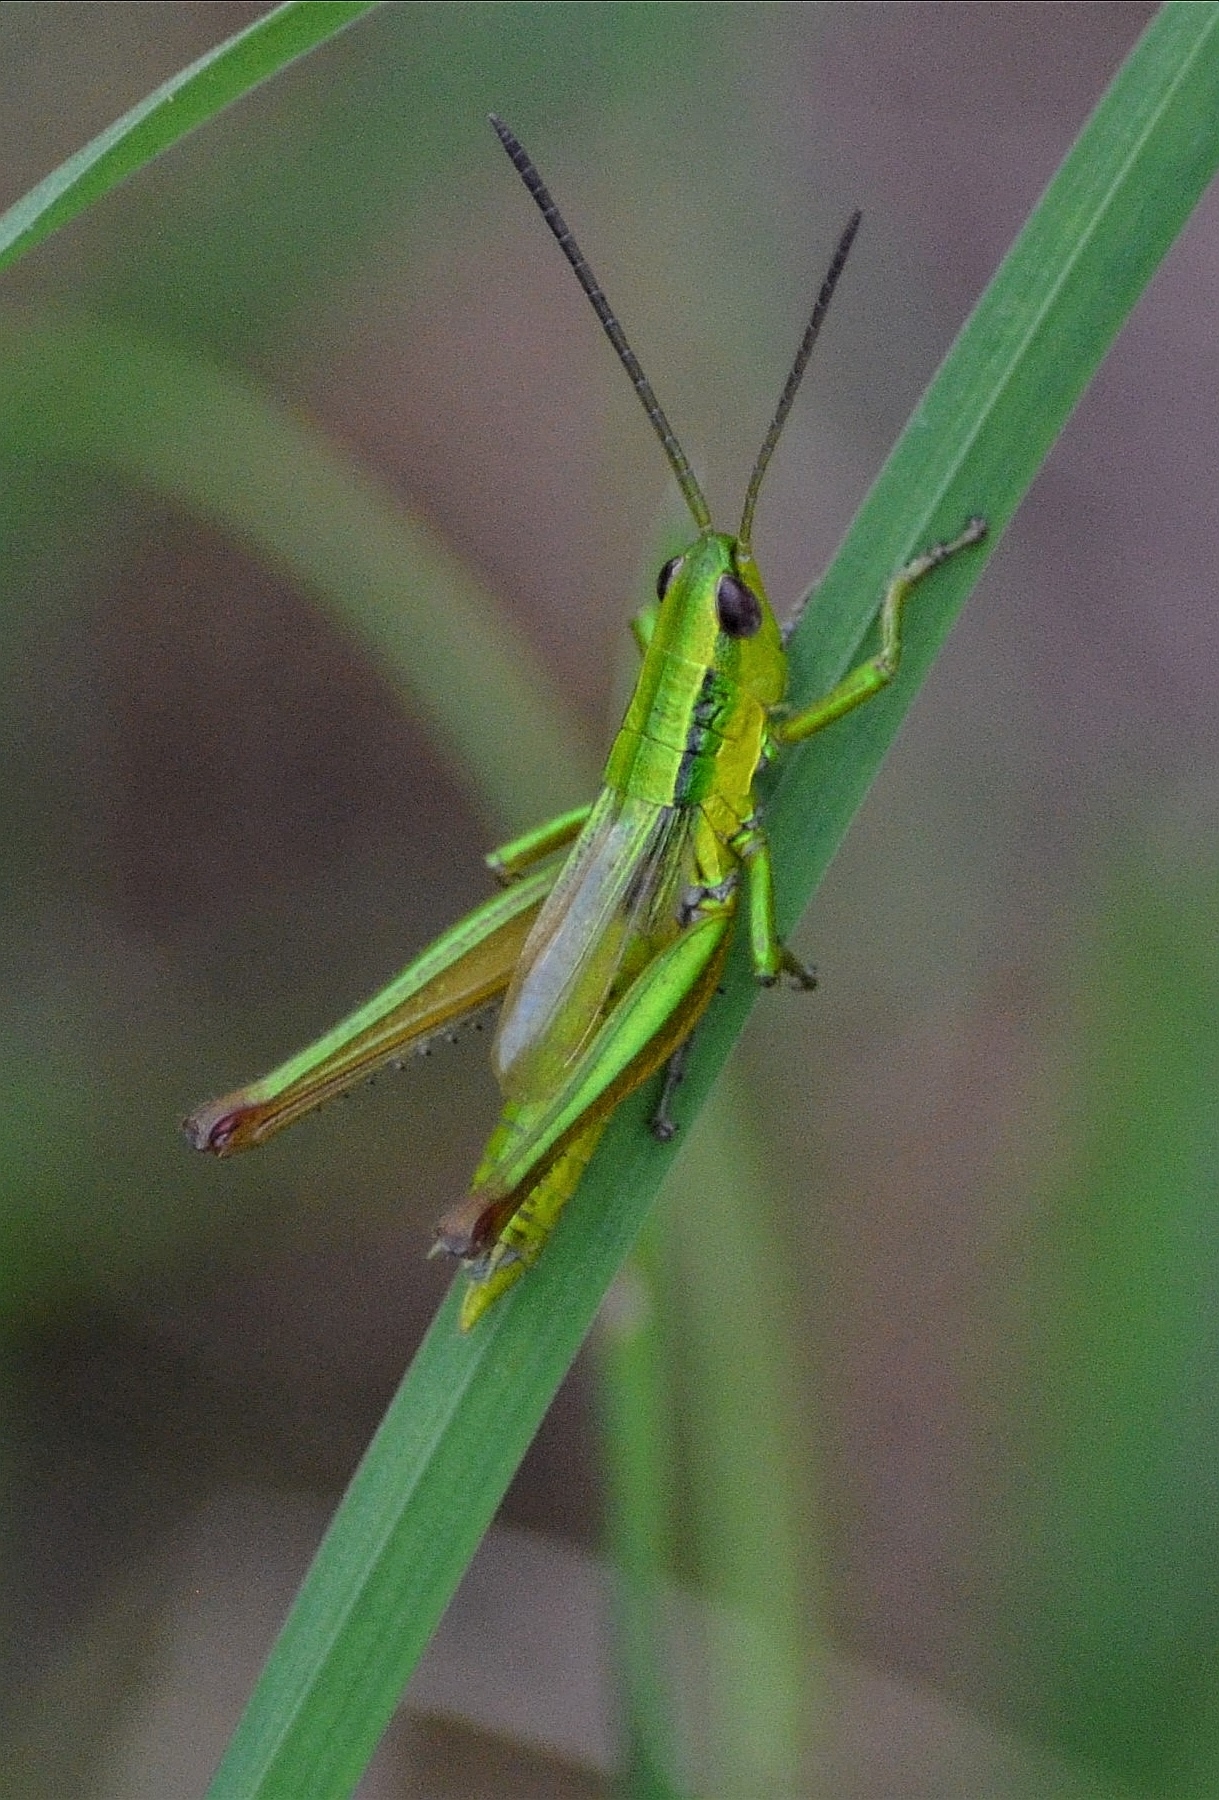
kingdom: Animalia
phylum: Arthropoda
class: Insecta
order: Orthoptera
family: Acrididae
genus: Euthystira
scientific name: Euthystira brachyptera
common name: Small gold grasshopper
